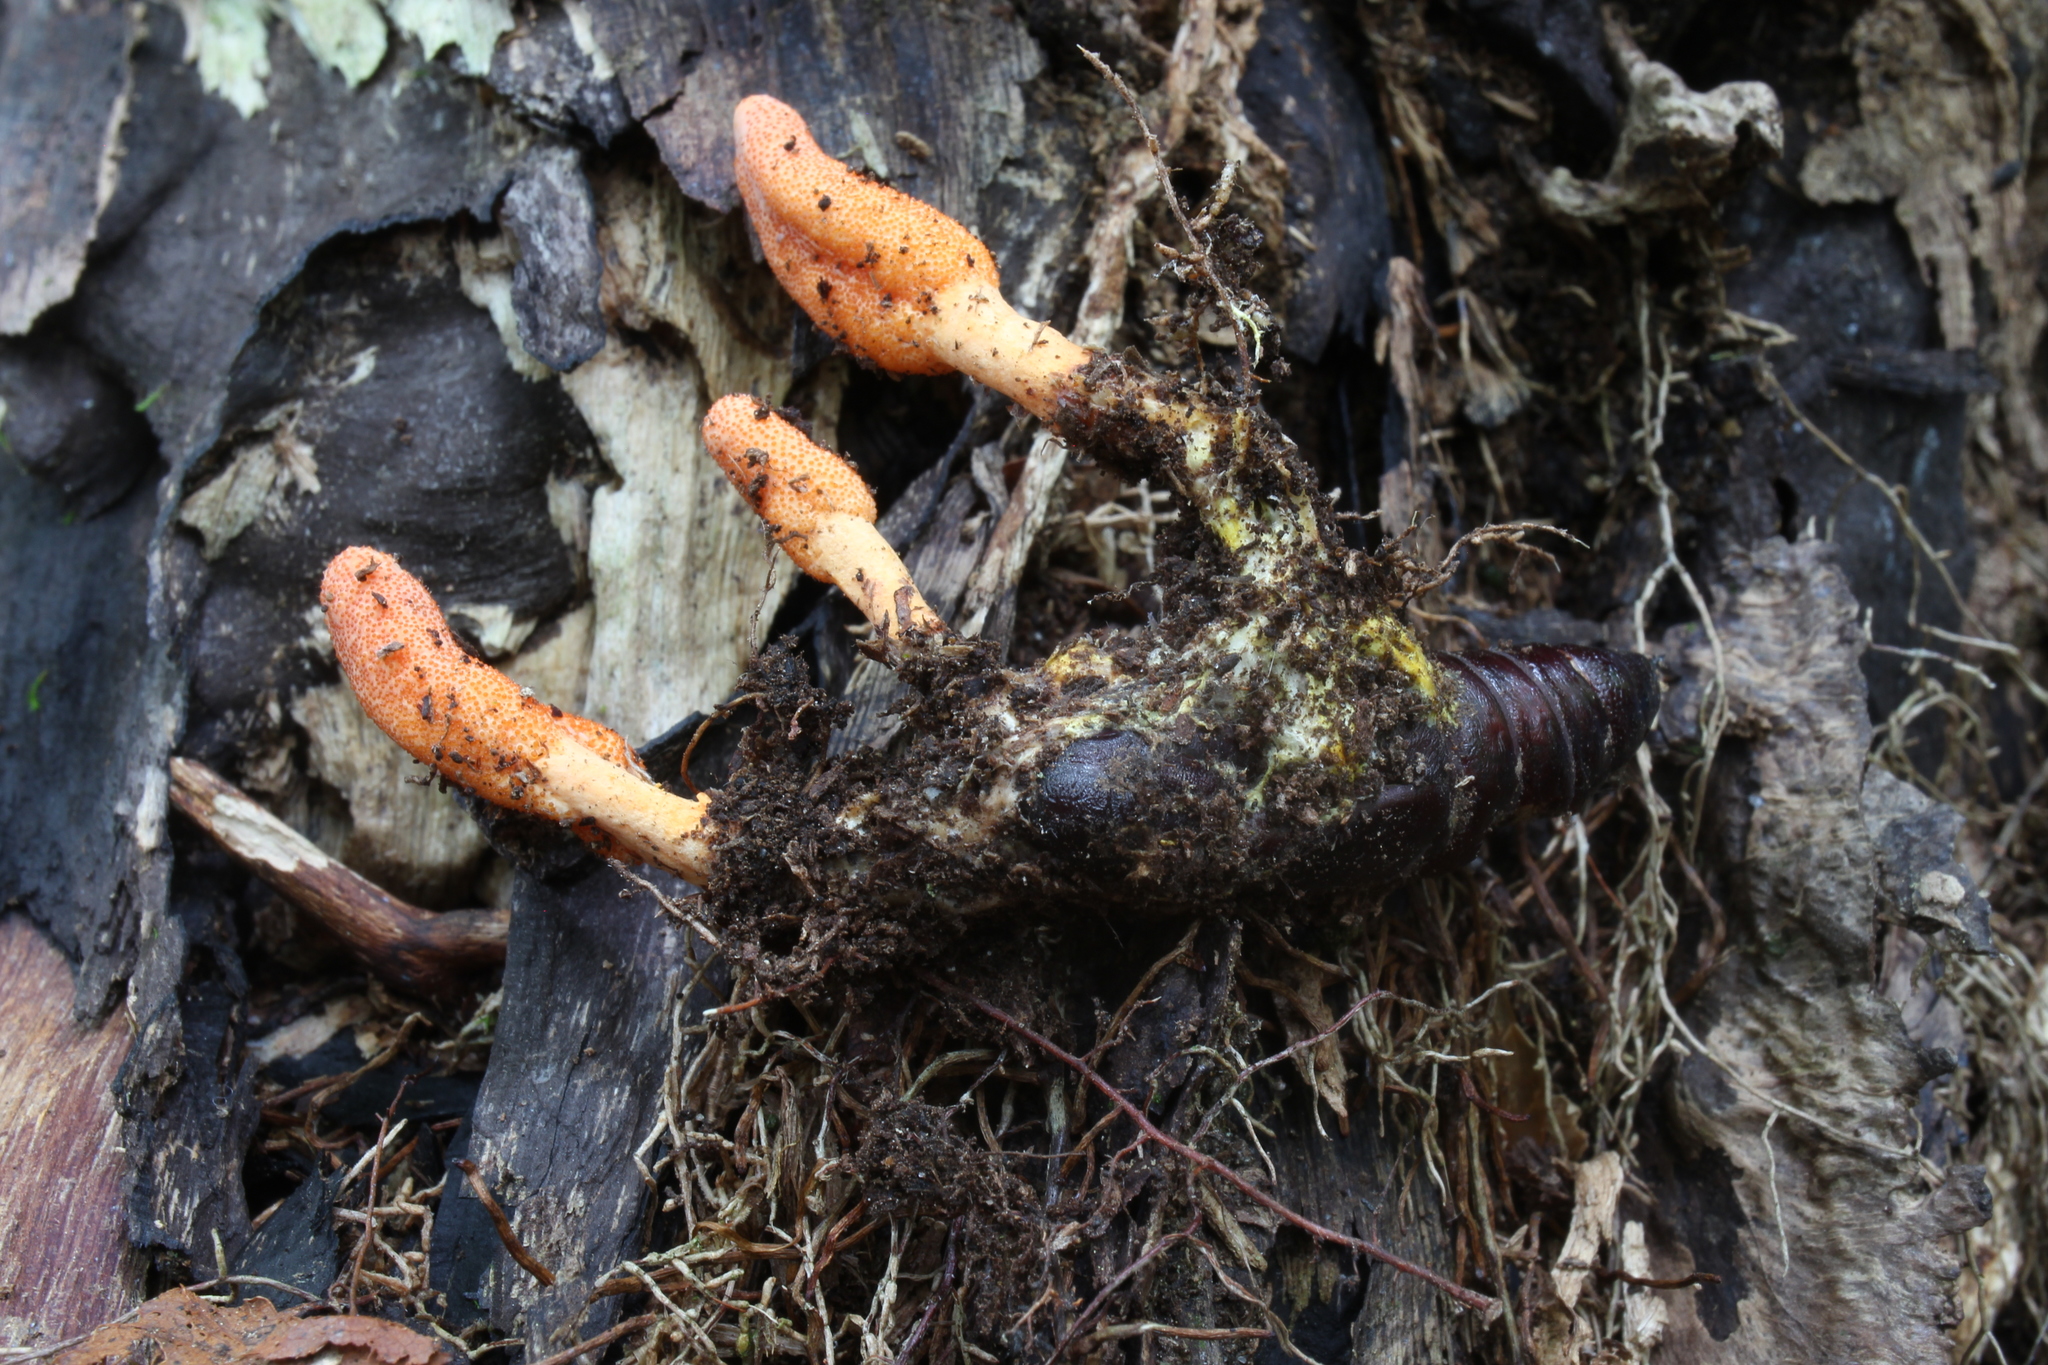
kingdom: Fungi
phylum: Ascomycota
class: Sordariomycetes
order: Hypocreales
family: Cordycipitaceae
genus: Cordyceps
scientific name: Cordyceps militaris
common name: Scarlet caterpillar fungus
